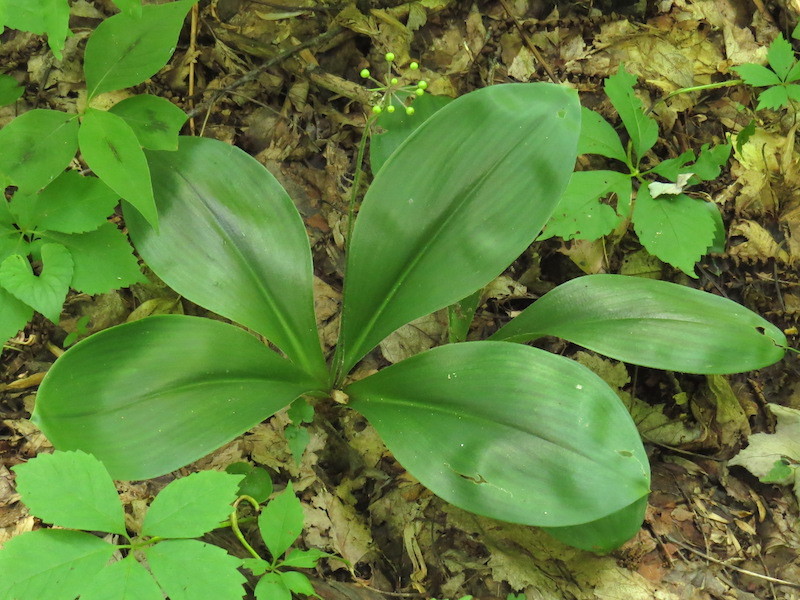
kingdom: Plantae
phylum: Tracheophyta
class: Liliopsida
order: Liliales
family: Liliaceae
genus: Clintonia
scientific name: Clintonia umbellulata
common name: Speckle wood-lily
